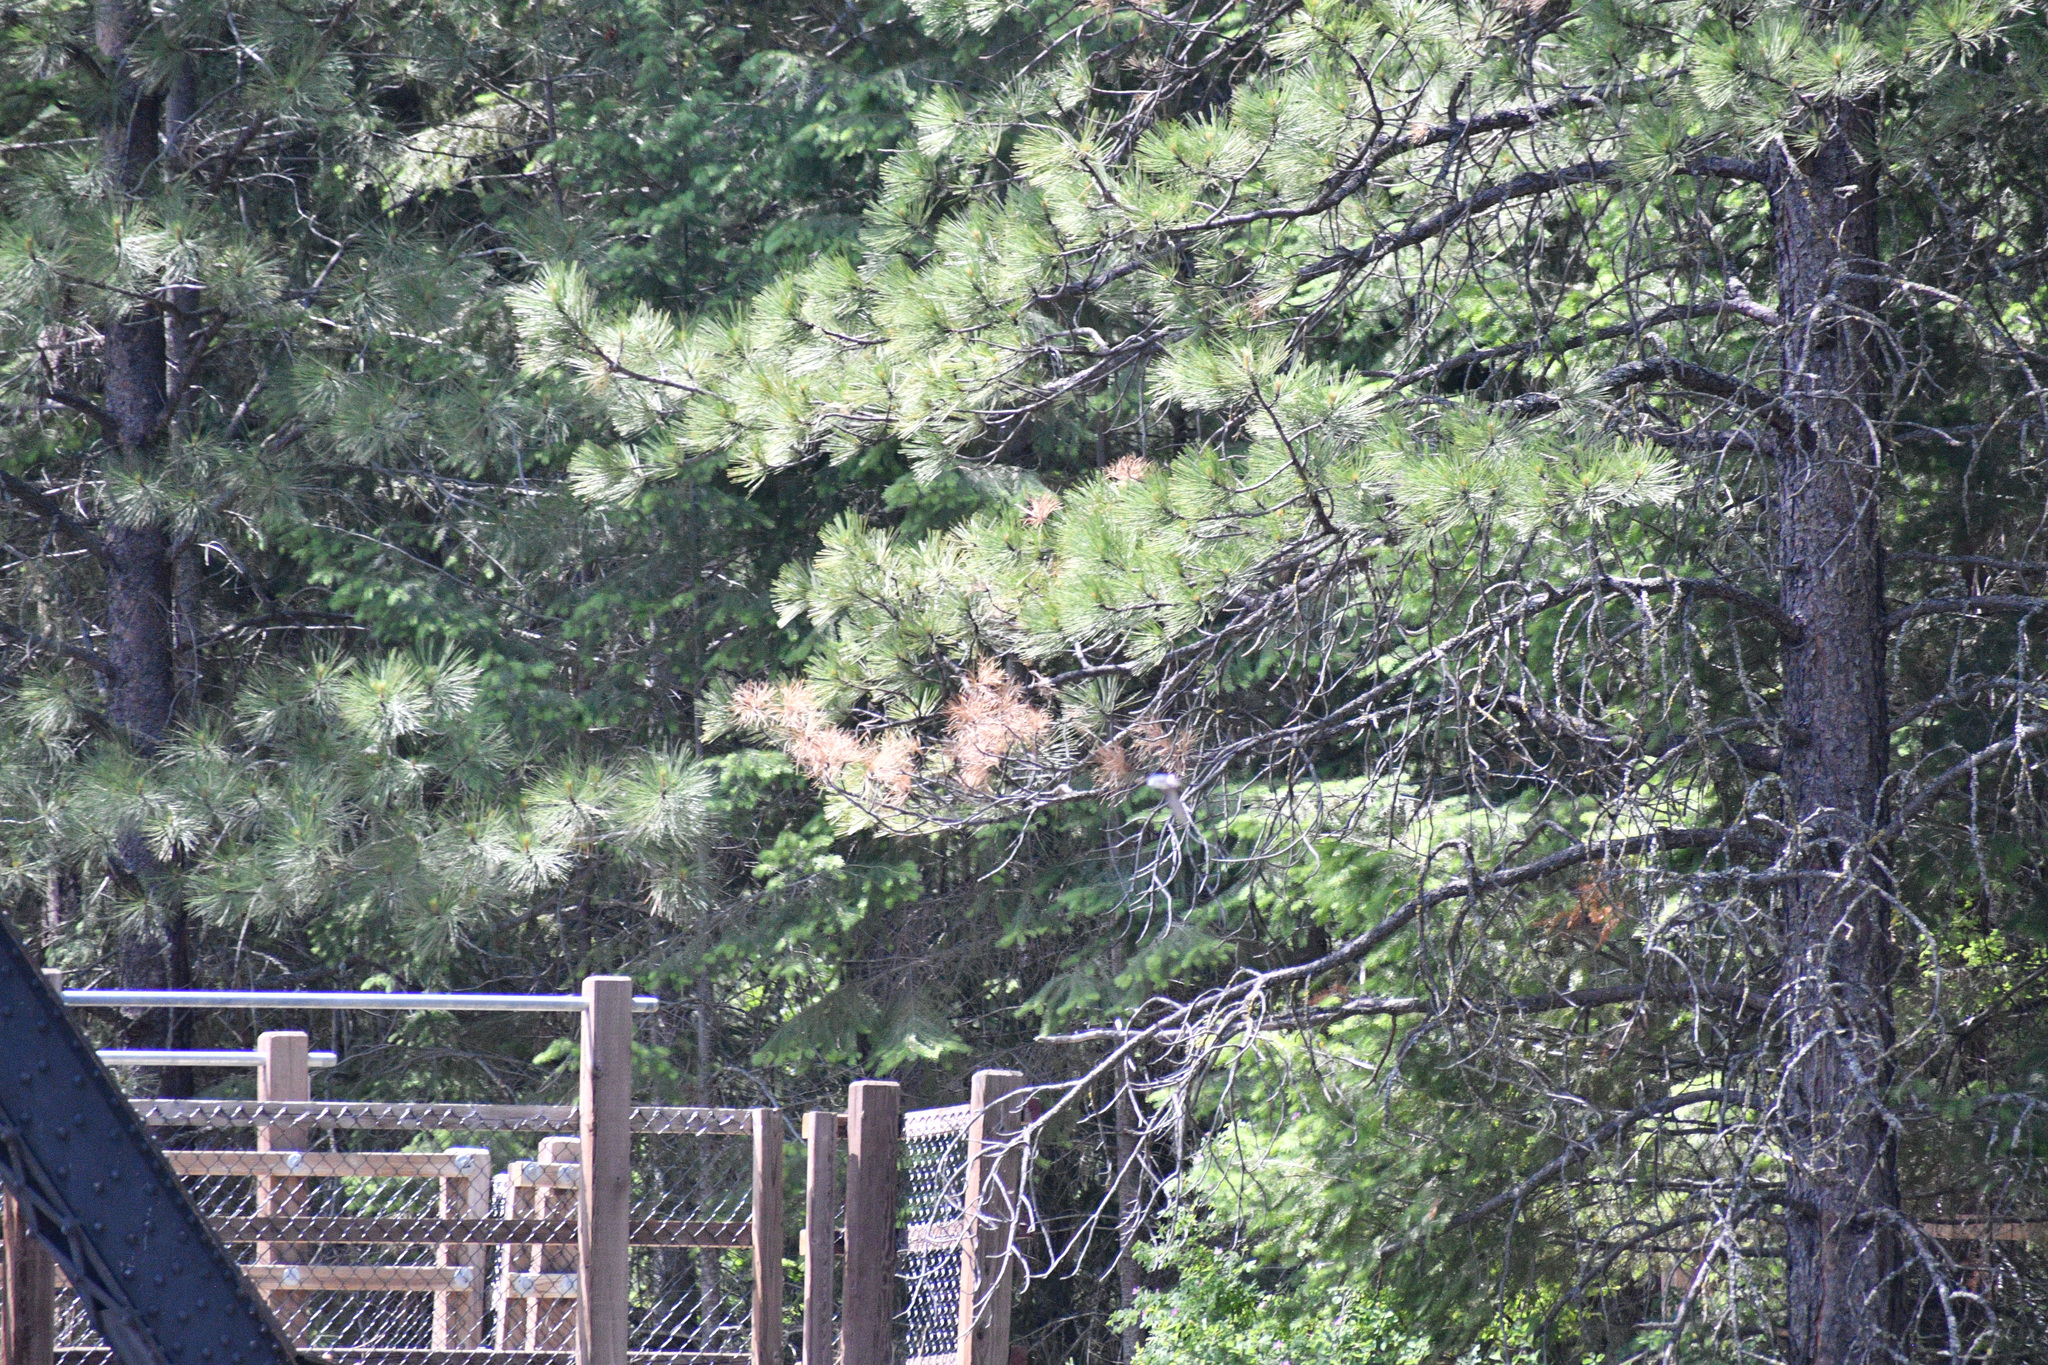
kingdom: Plantae
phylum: Tracheophyta
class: Pinopsida
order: Pinales
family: Pinaceae
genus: Pinus
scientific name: Pinus ponderosa
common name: Western yellow-pine
